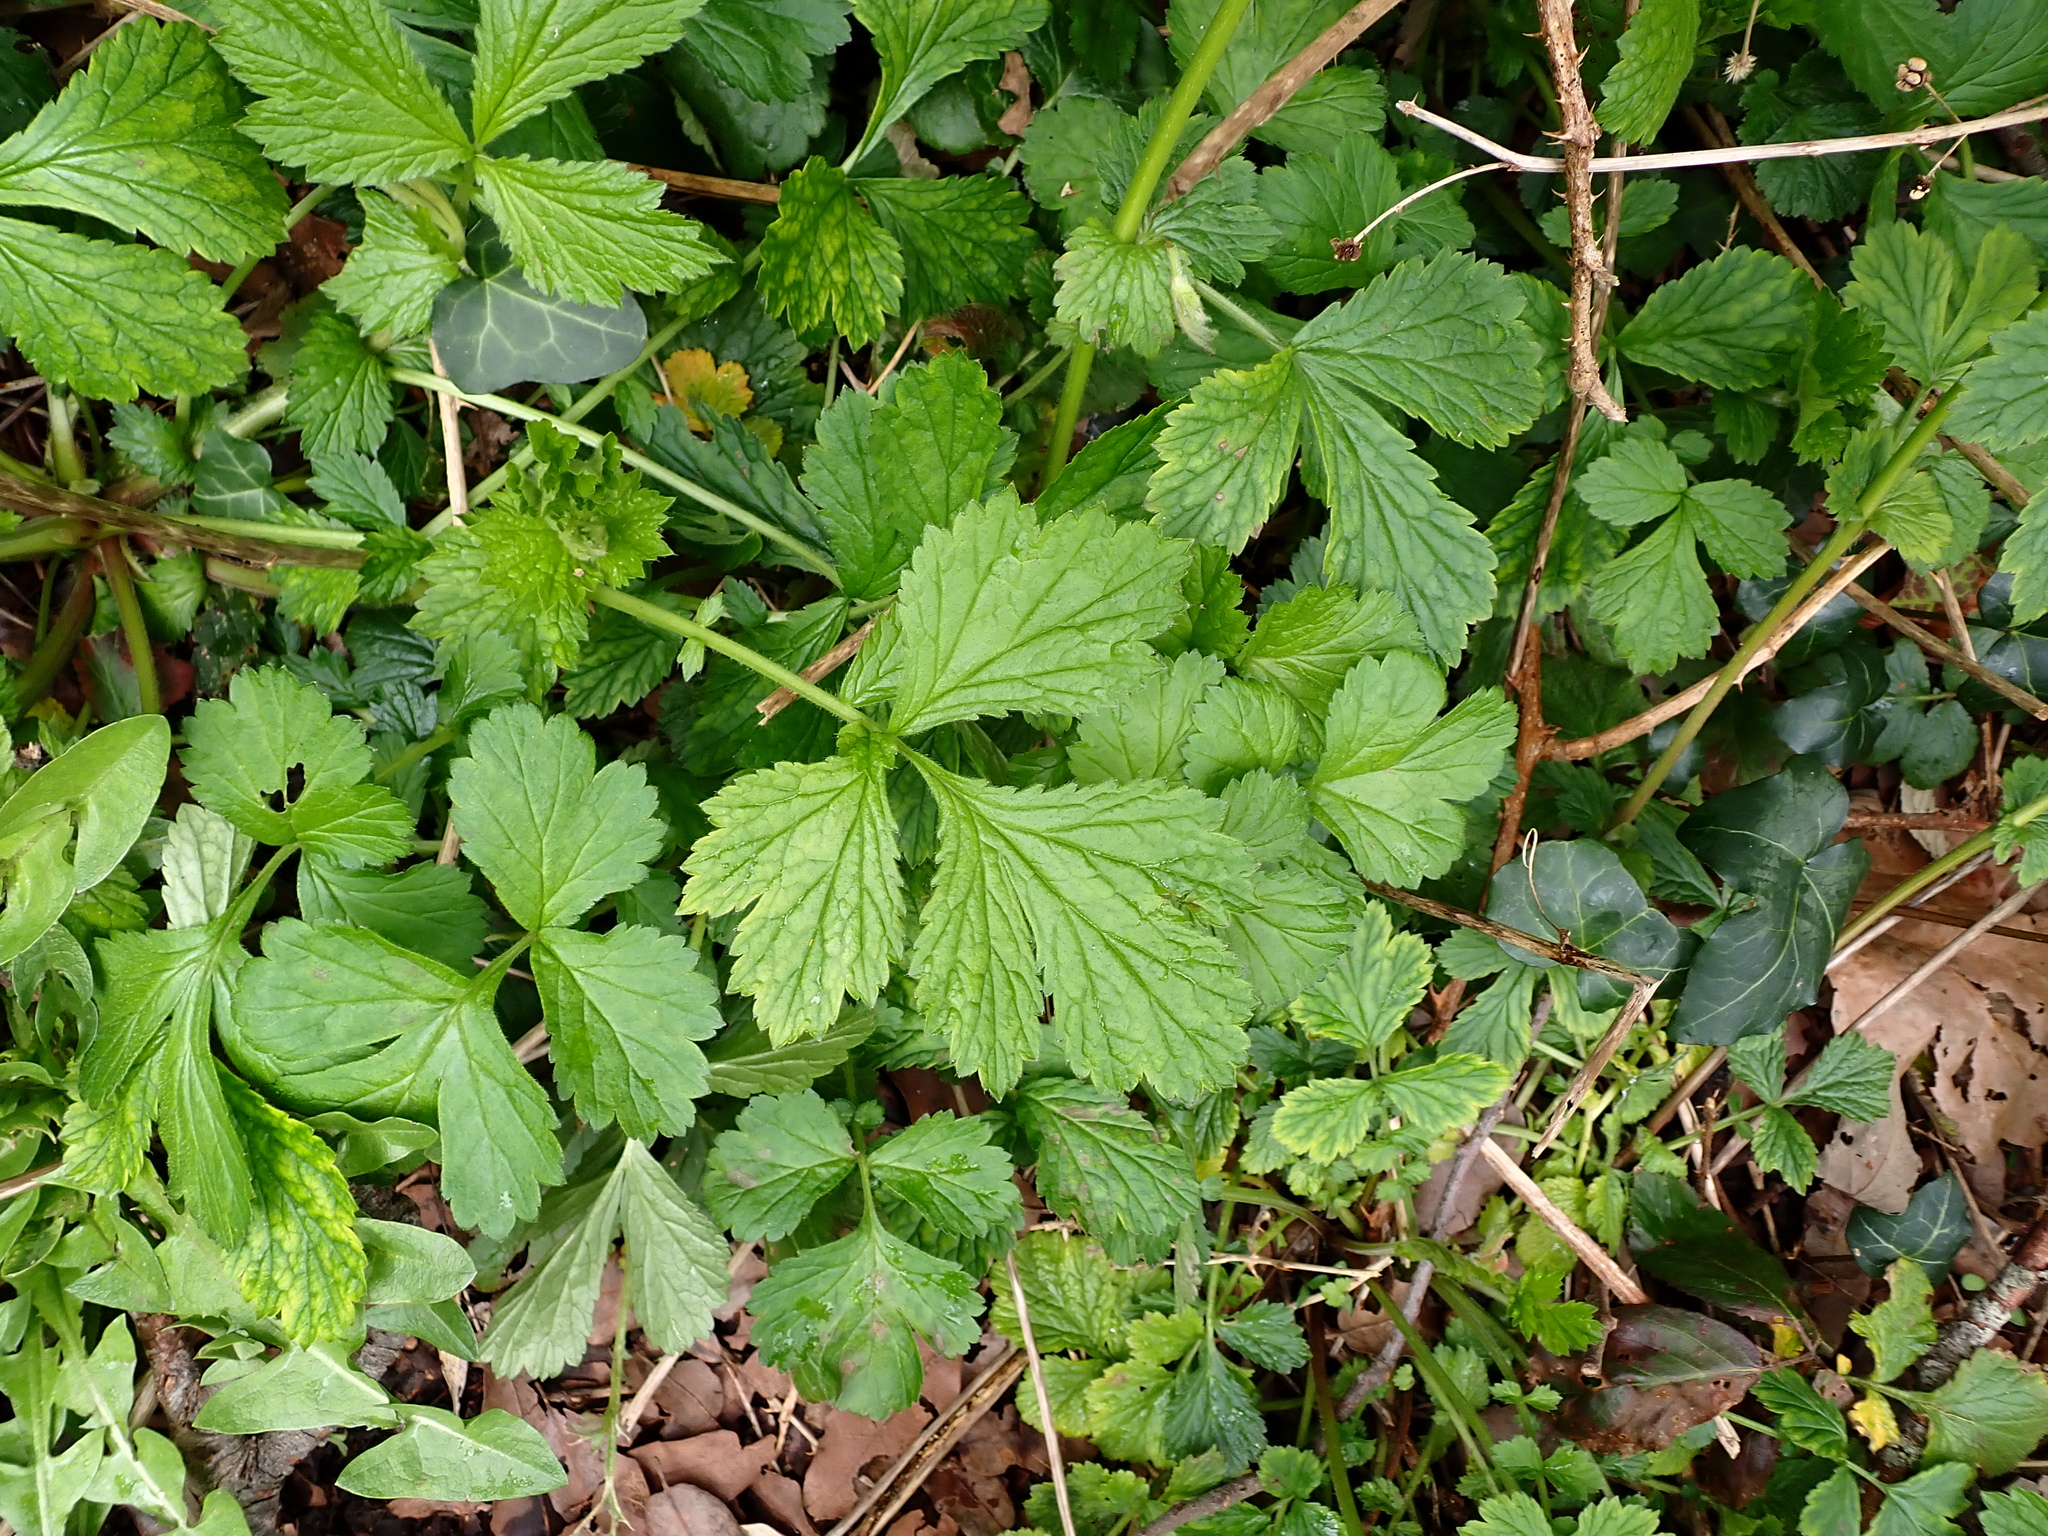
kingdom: Plantae
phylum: Tracheophyta
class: Magnoliopsida
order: Rosales
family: Rosaceae
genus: Geum
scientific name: Geum urbanum
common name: Wood avens
